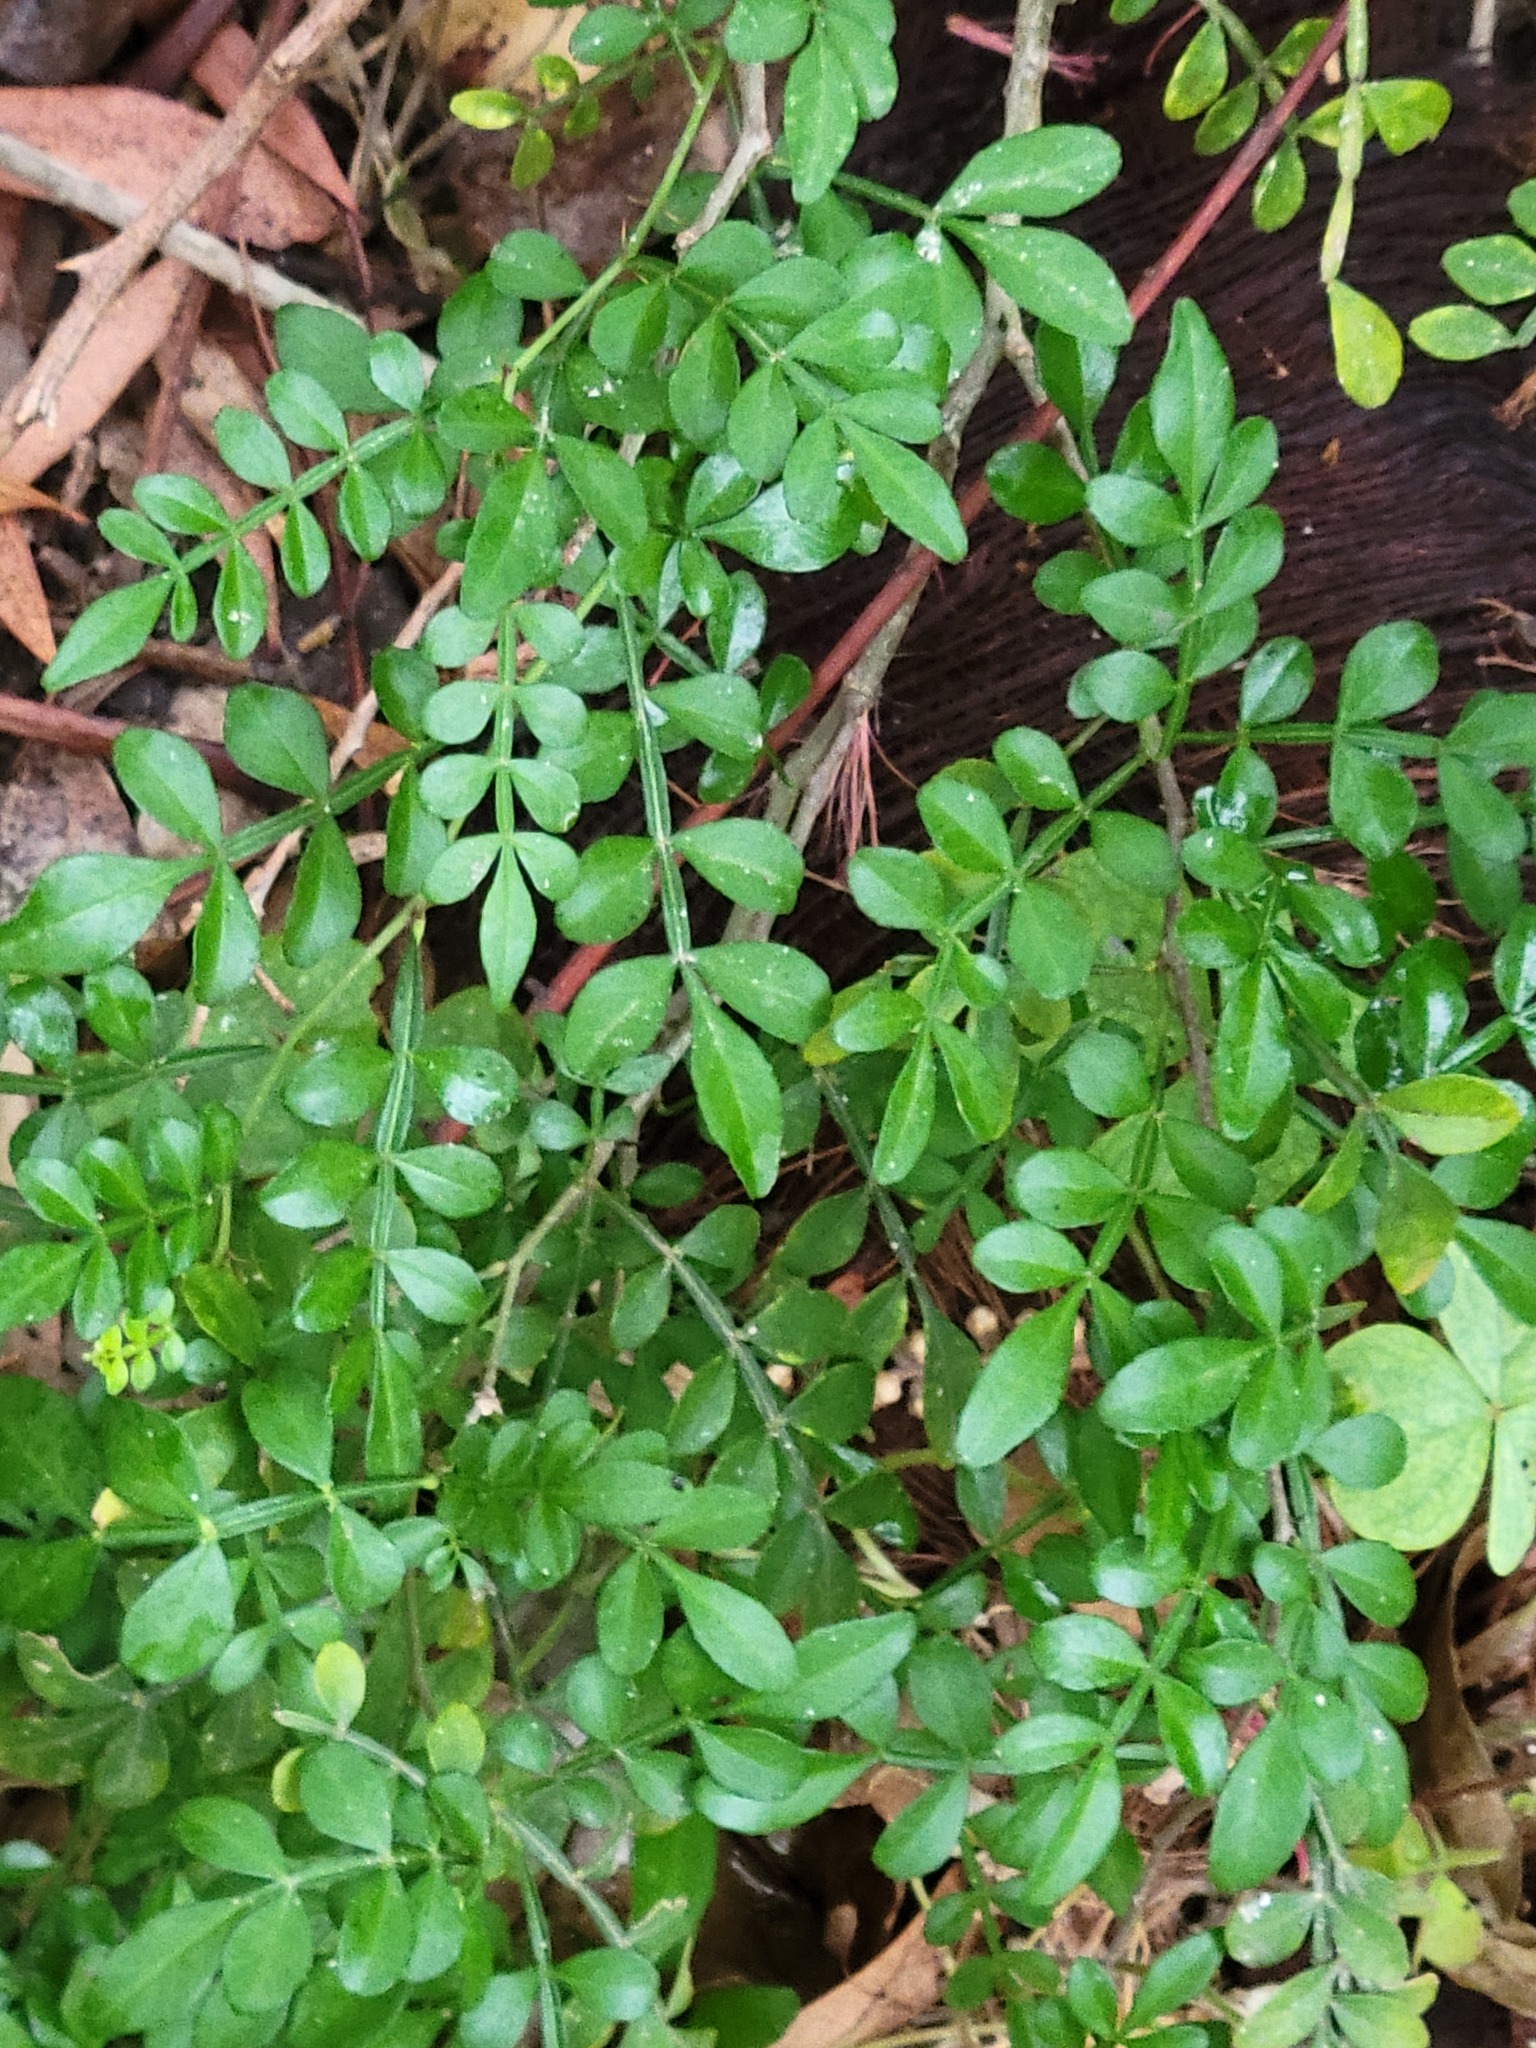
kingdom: Plantae
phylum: Tracheophyta
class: Magnoliopsida
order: Sapindales
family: Rutaceae
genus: Zanthoxylum
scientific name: Zanthoxylum fagara
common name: Lime prickly-ash
